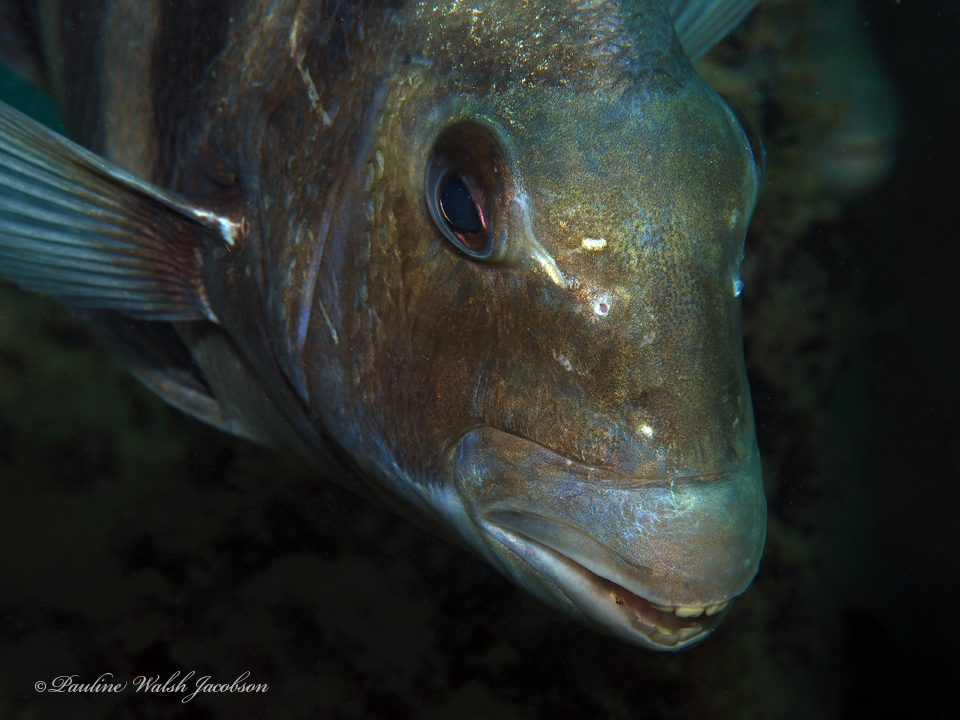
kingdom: Animalia
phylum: Chordata
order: Perciformes
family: Sparidae
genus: Archosargus
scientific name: Archosargus probatocephalus
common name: Sheepshead
